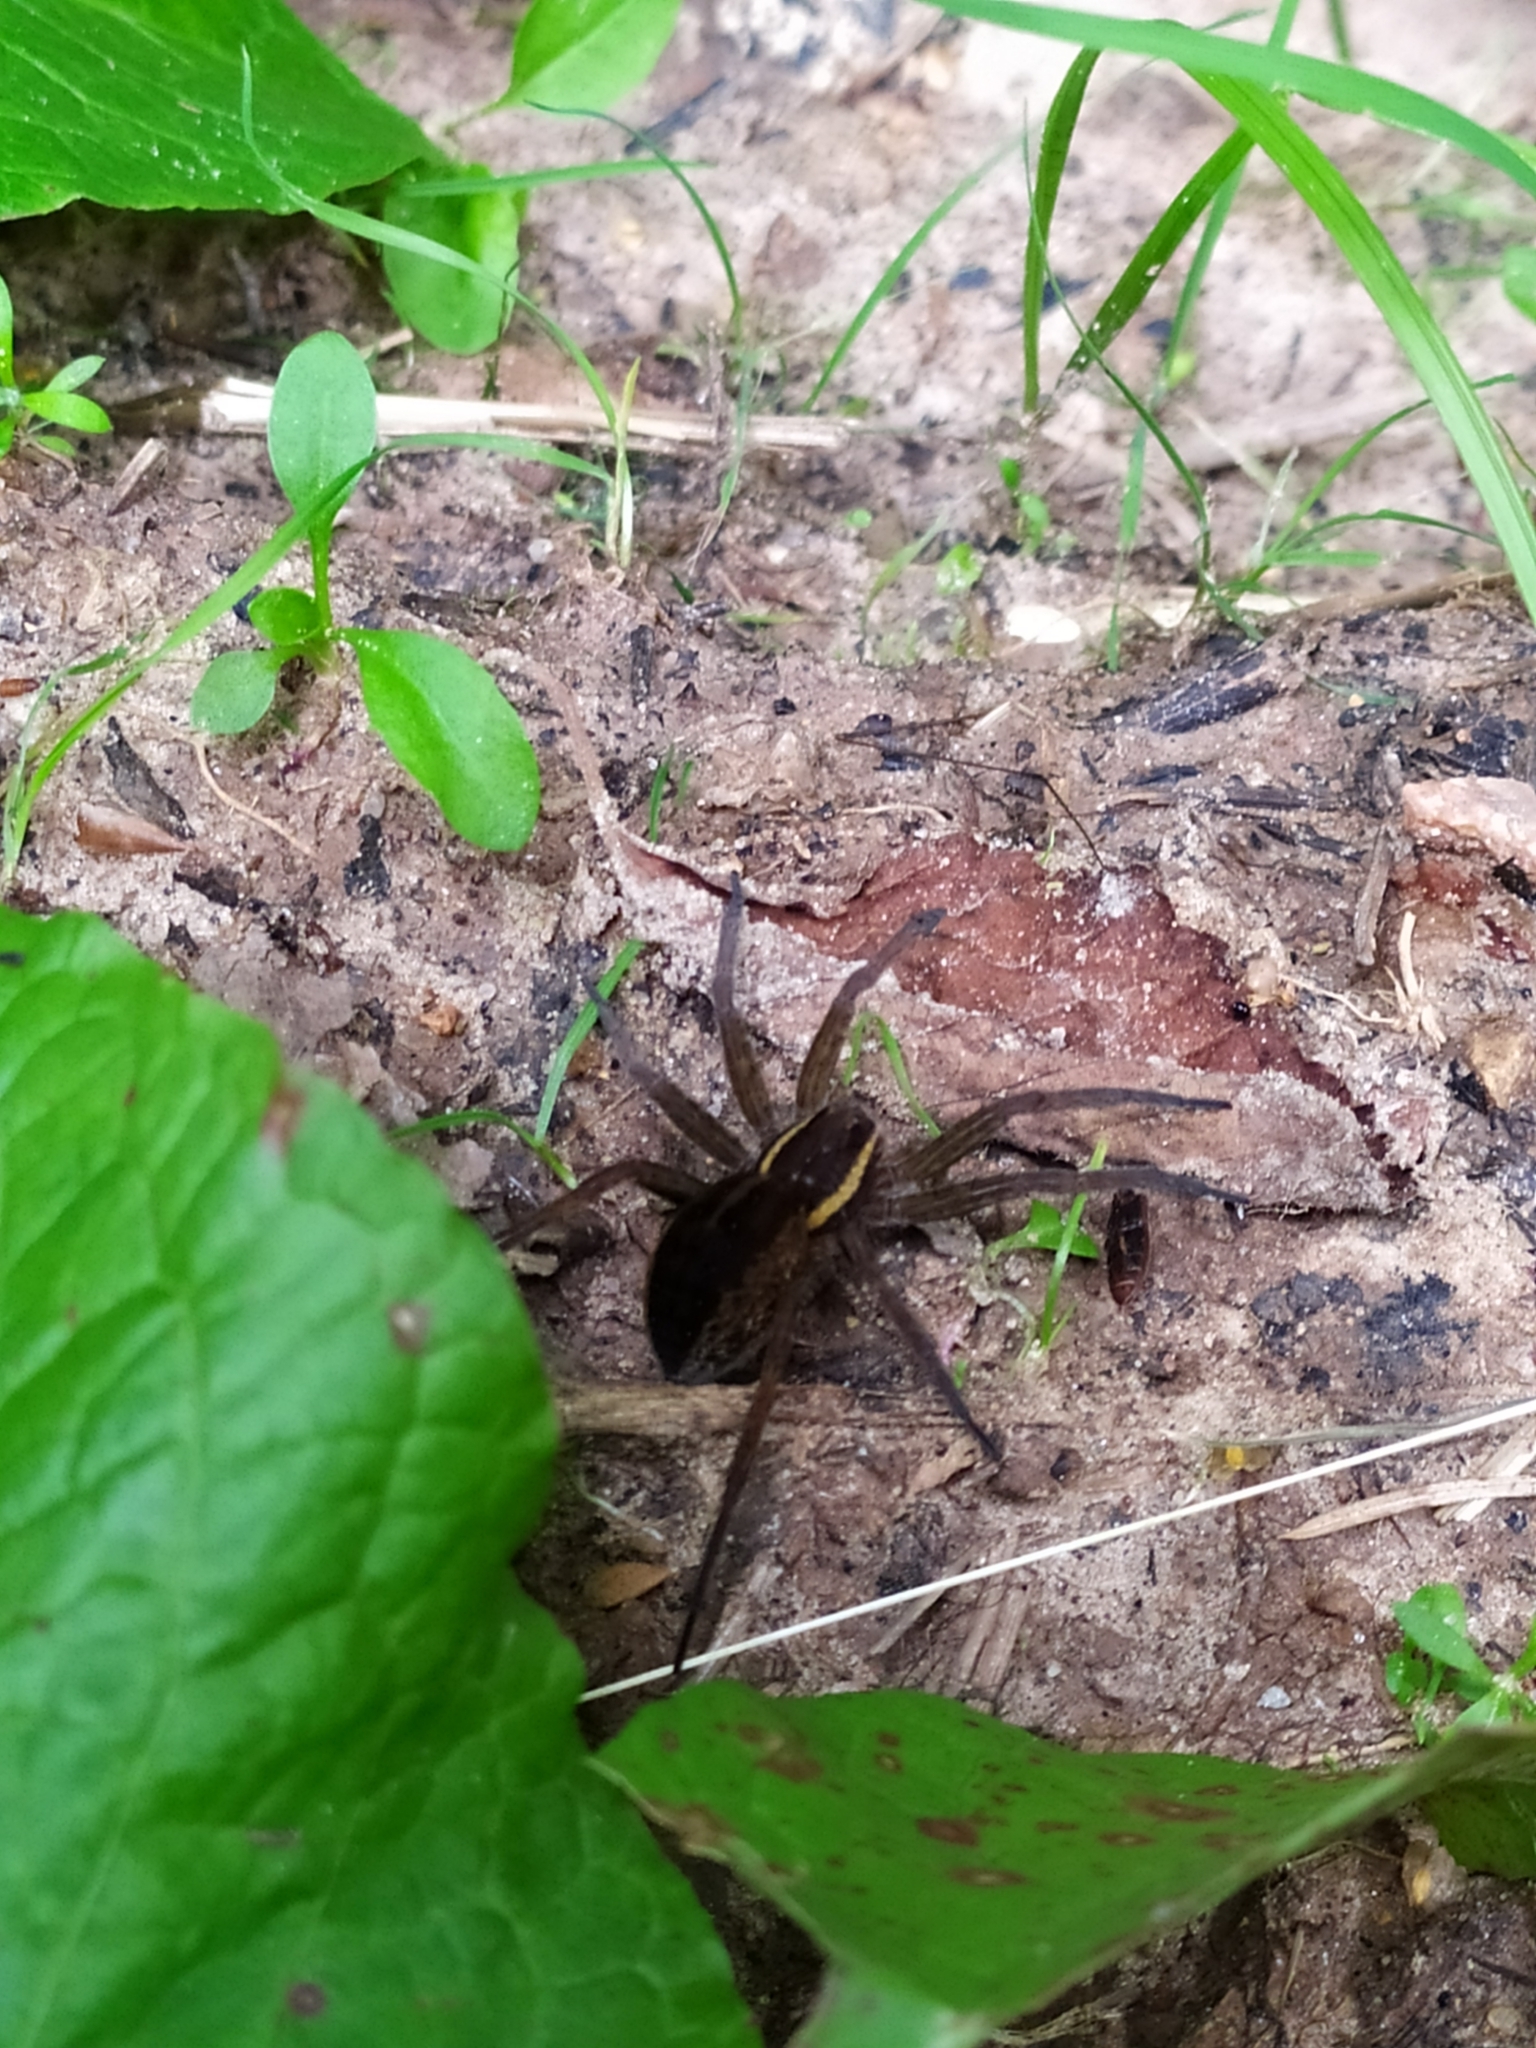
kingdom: Animalia
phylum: Arthropoda
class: Arachnida
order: Araneae
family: Pisauridae
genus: Dolomedes
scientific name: Dolomedes fimbriatus
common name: Raft spider
